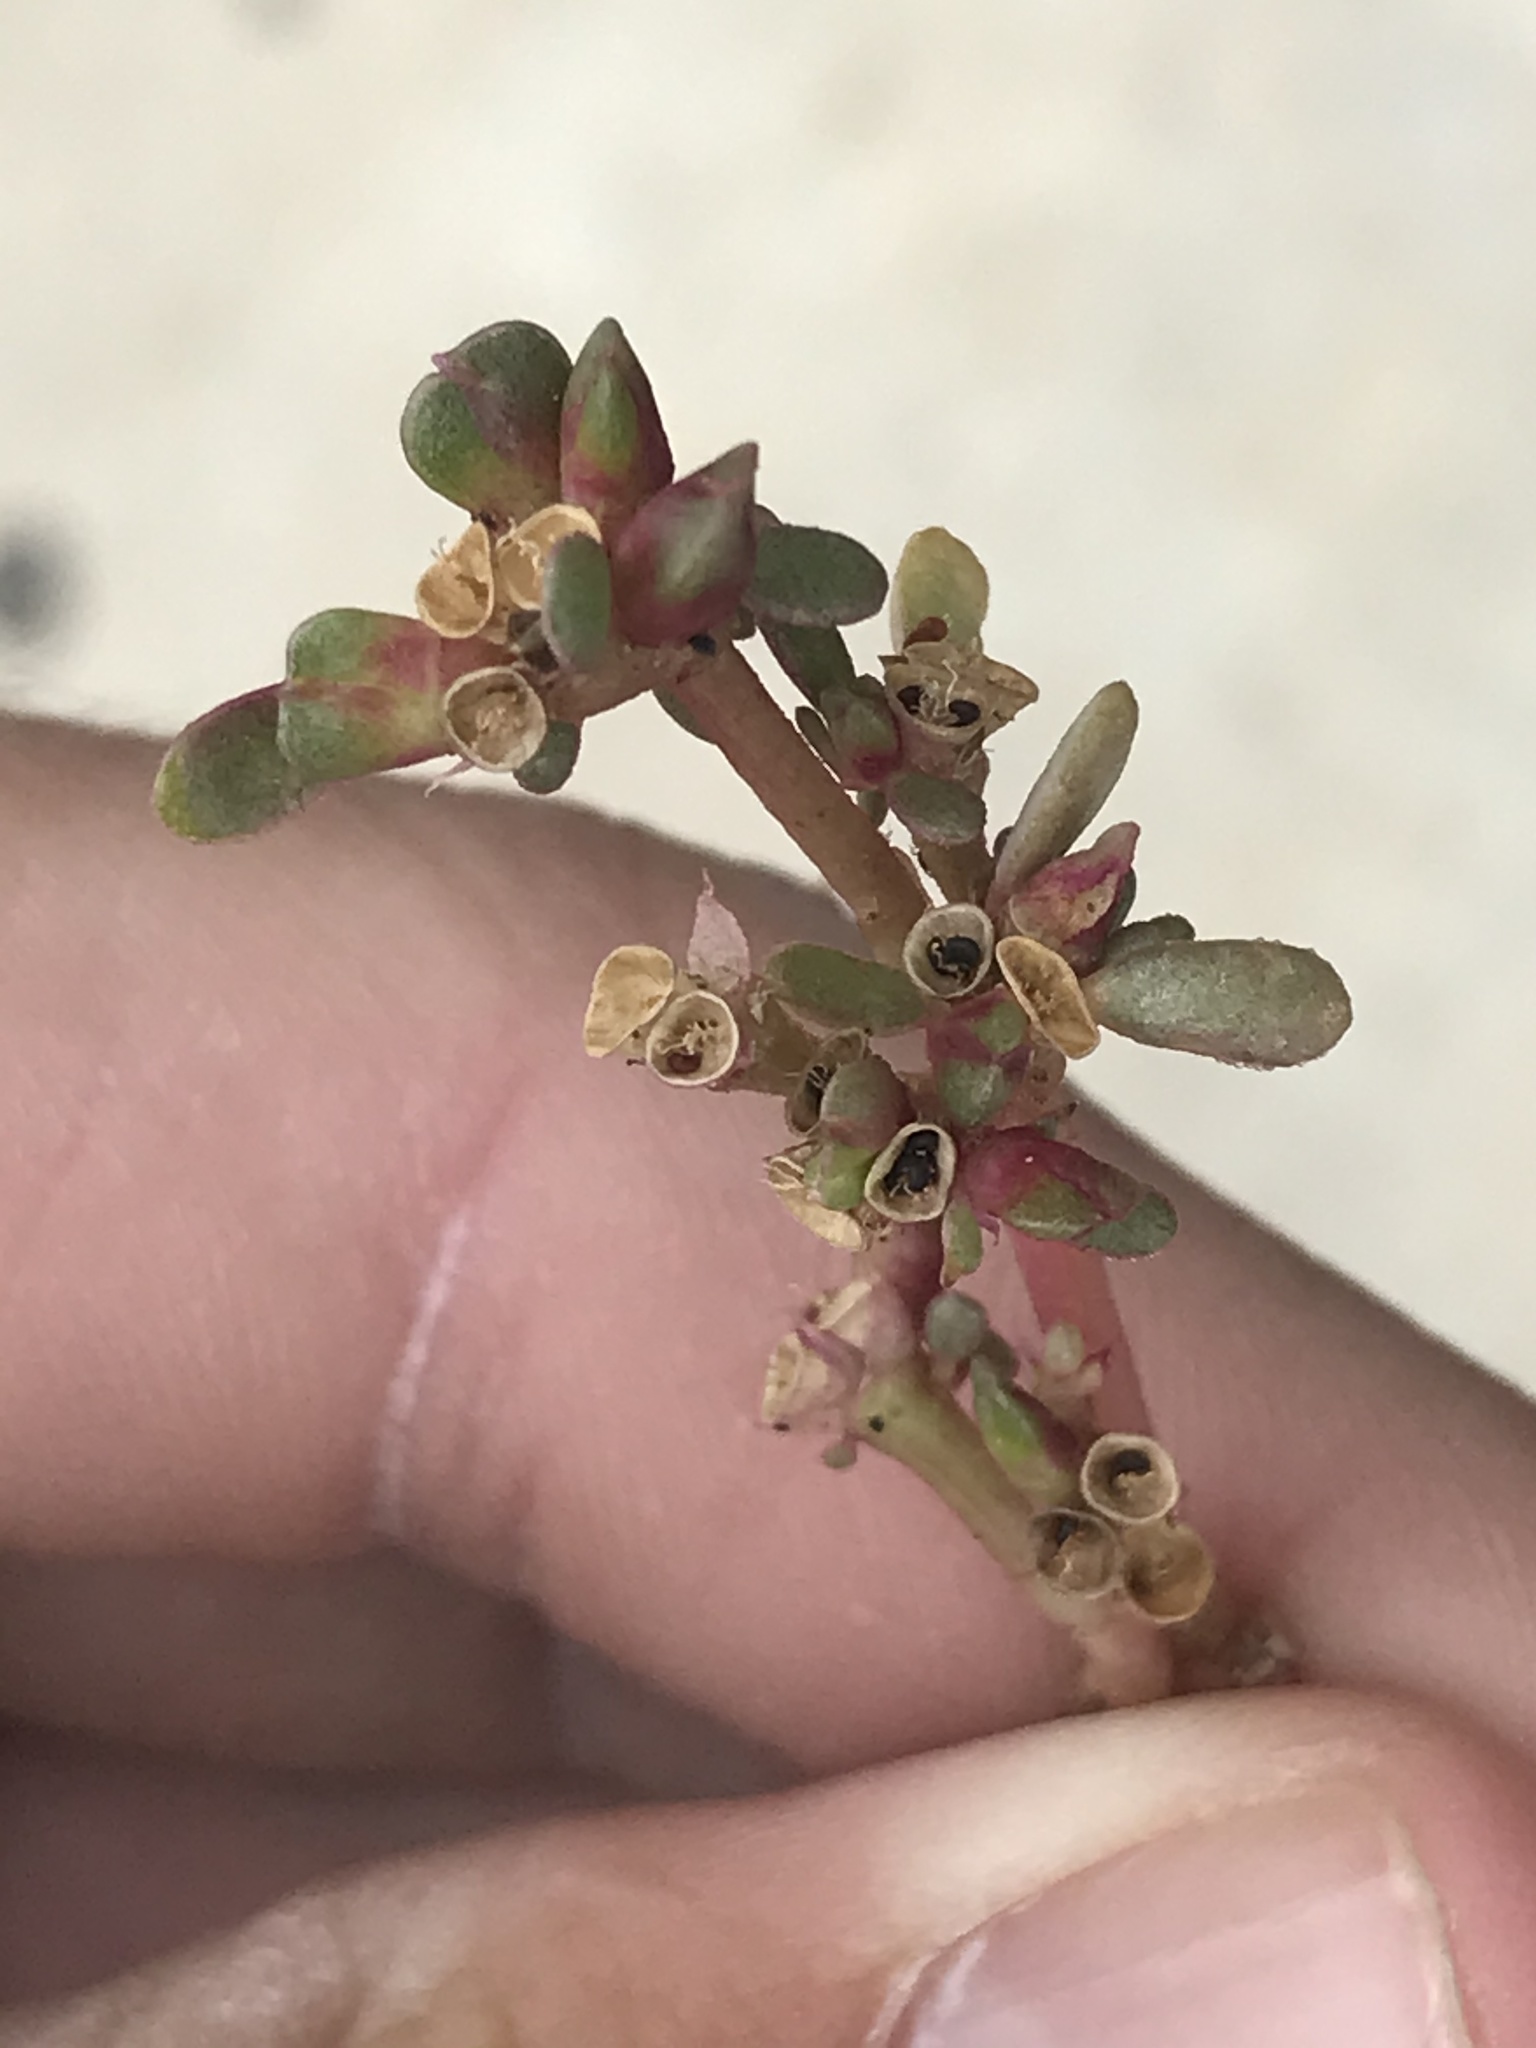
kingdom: Plantae
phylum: Tracheophyta
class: Magnoliopsida
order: Caryophyllales
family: Portulacaceae
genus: Portulaca
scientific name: Portulaca oleracea
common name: Common purslane
